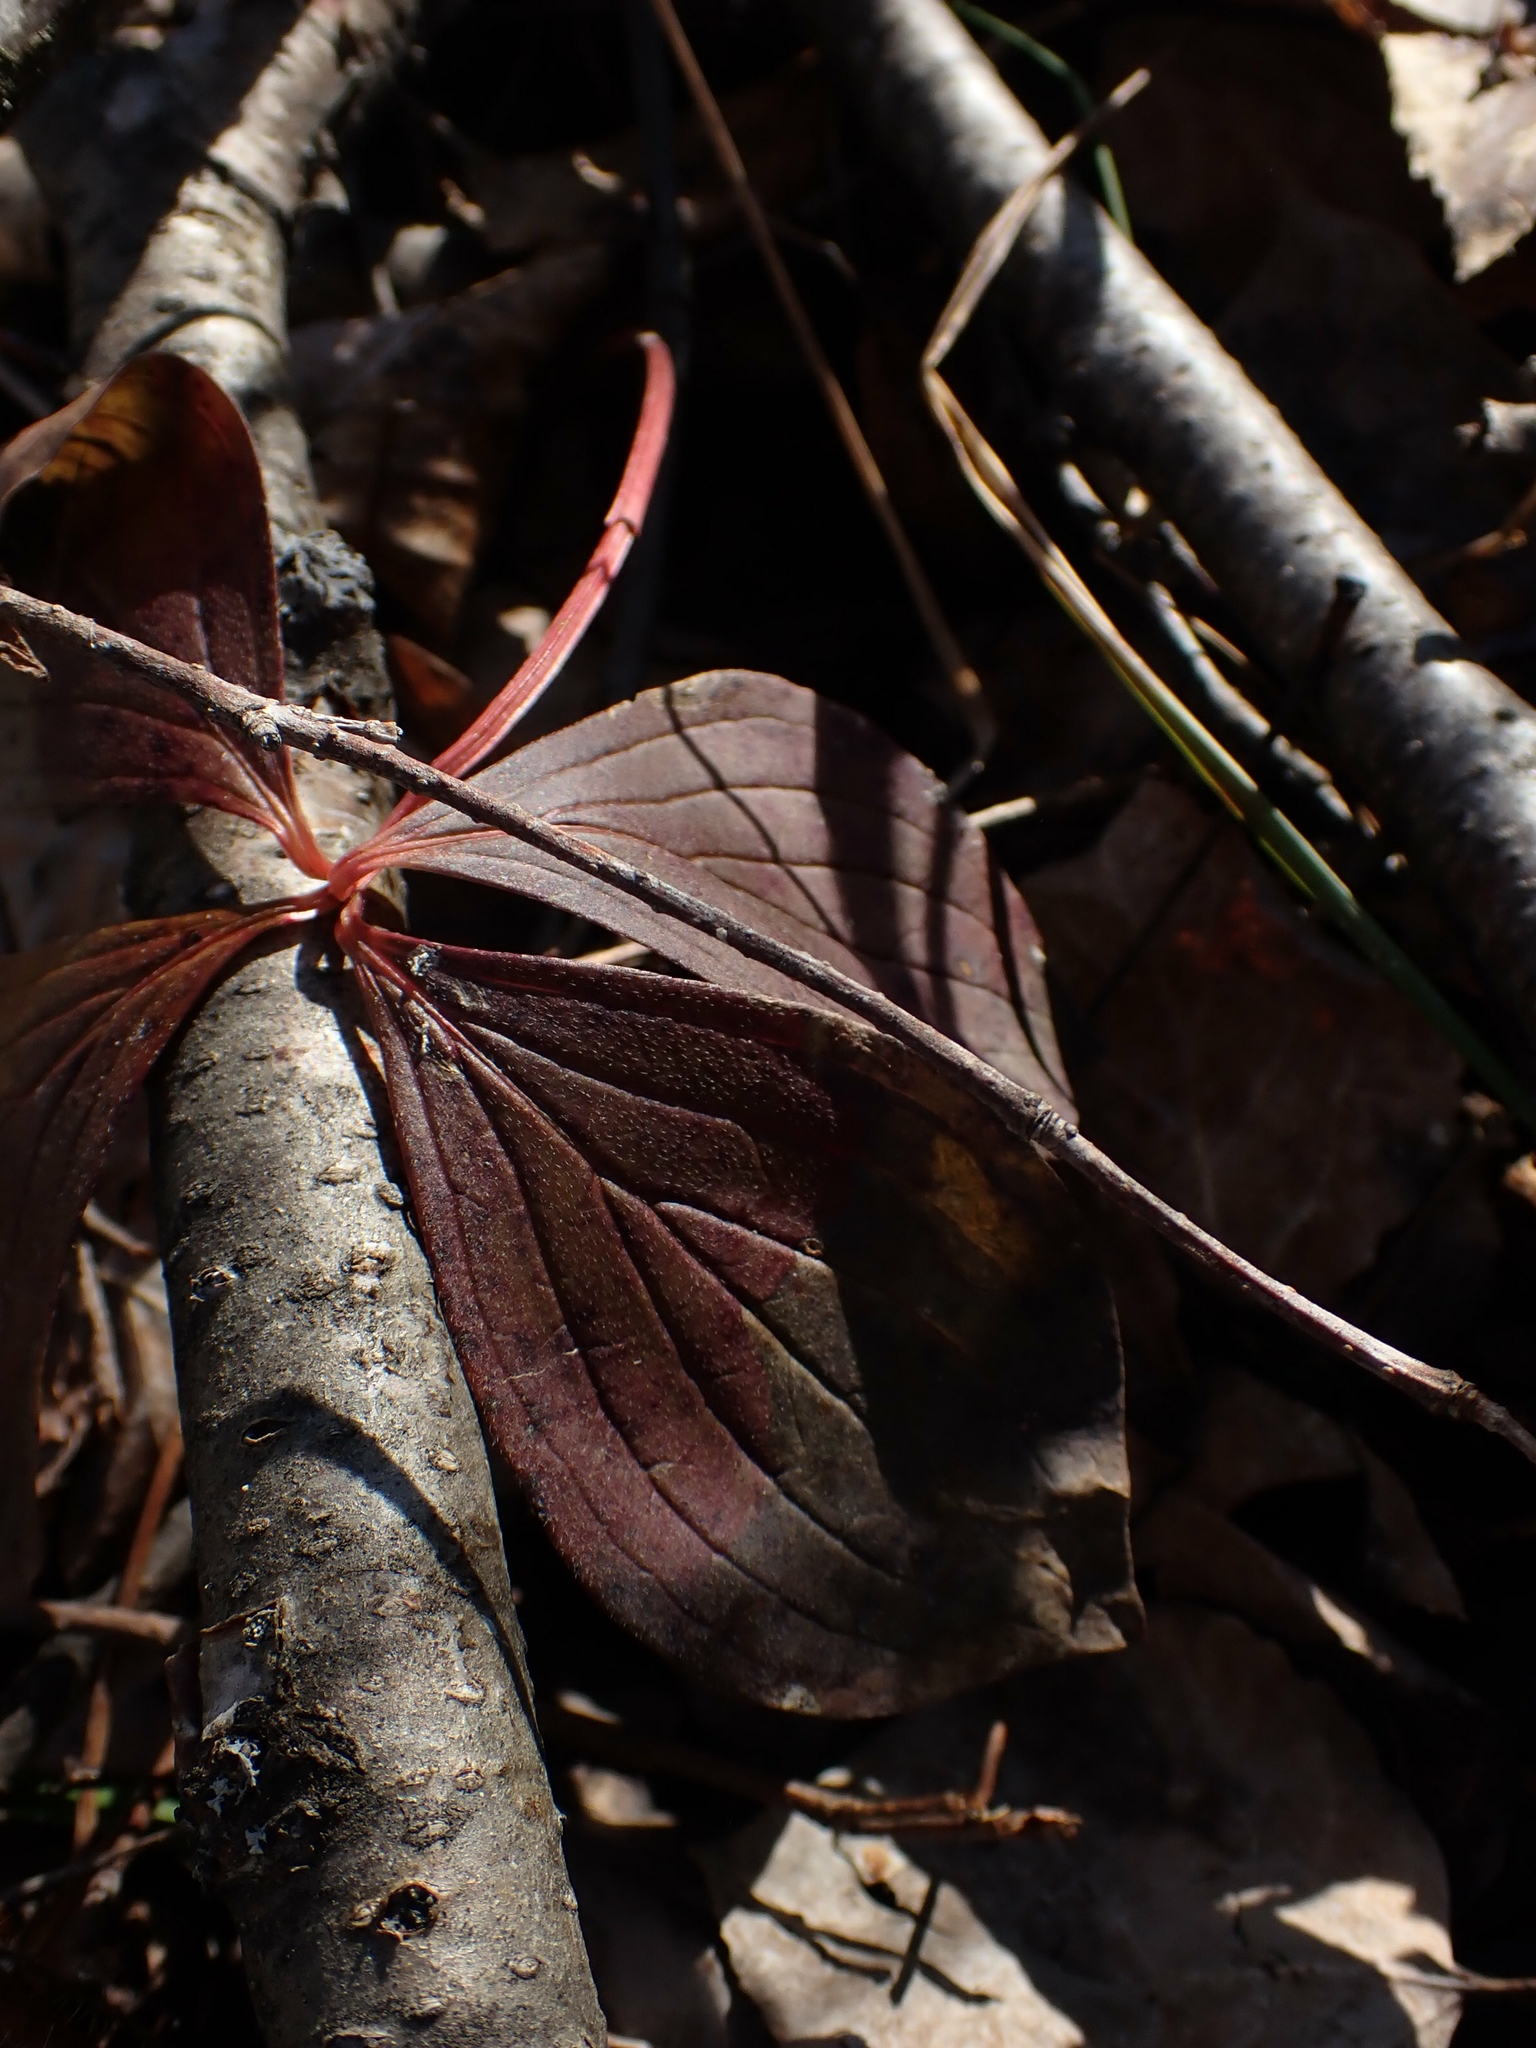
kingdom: Plantae
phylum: Tracheophyta
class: Magnoliopsida
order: Cornales
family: Cornaceae
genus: Cornus
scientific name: Cornus canadensis
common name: Creeping dogwood
